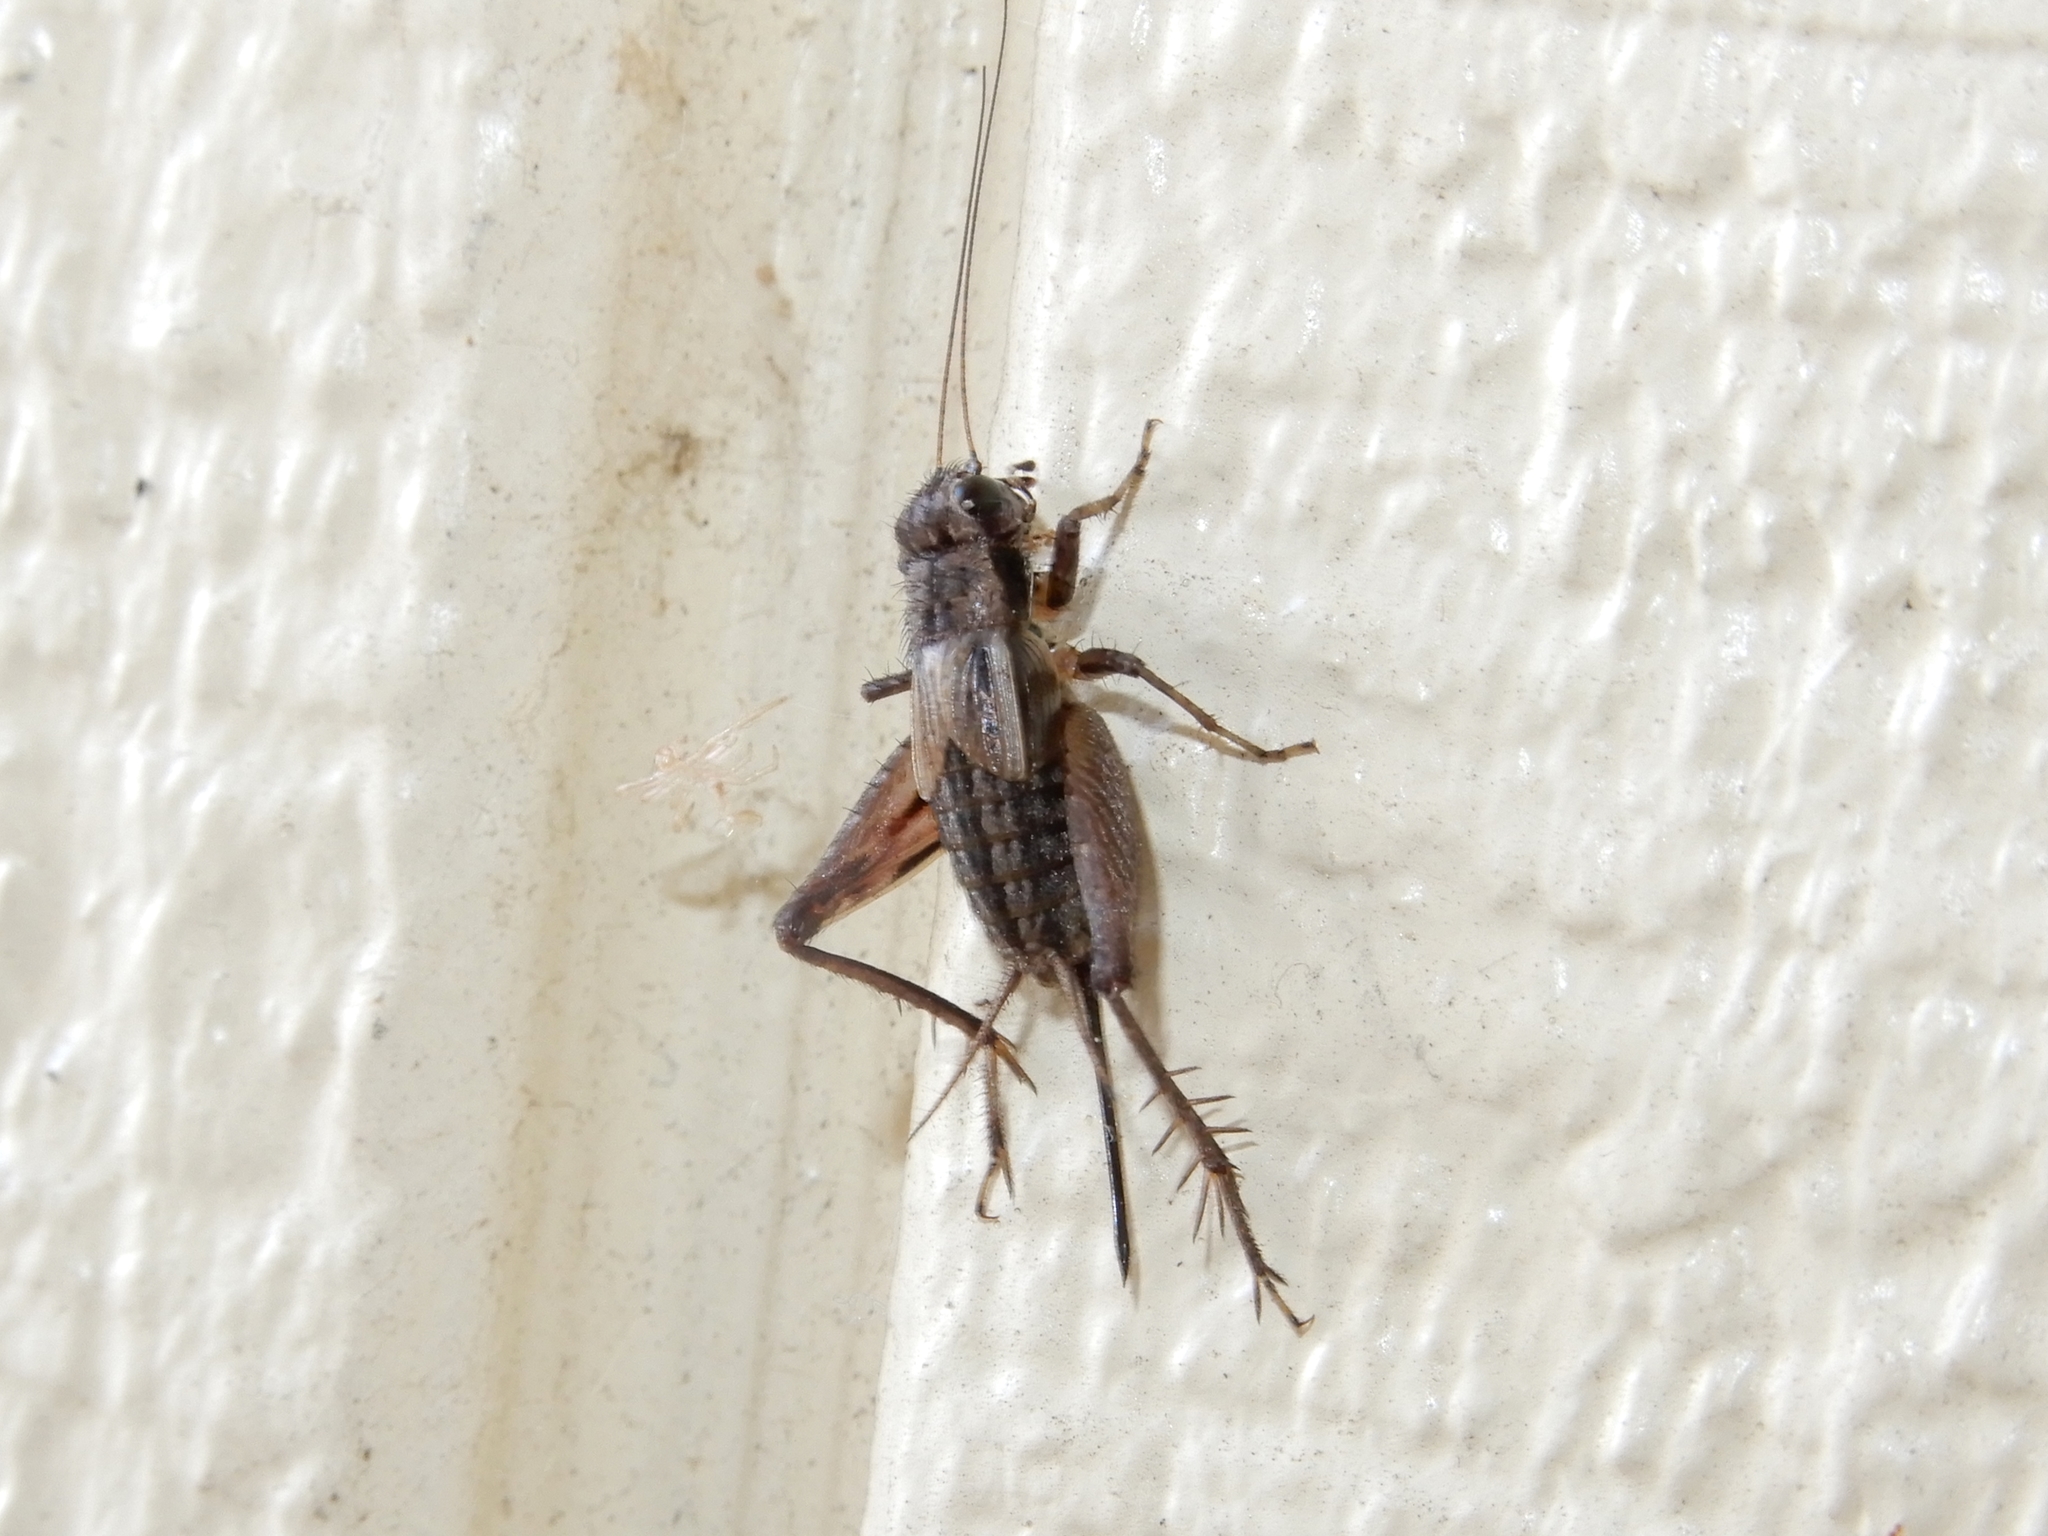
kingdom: Animalia
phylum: Arthropoda
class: Insecta
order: Orthoptera
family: Trigonidiidae
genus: Bobilla
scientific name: Bobilla nigrovus
